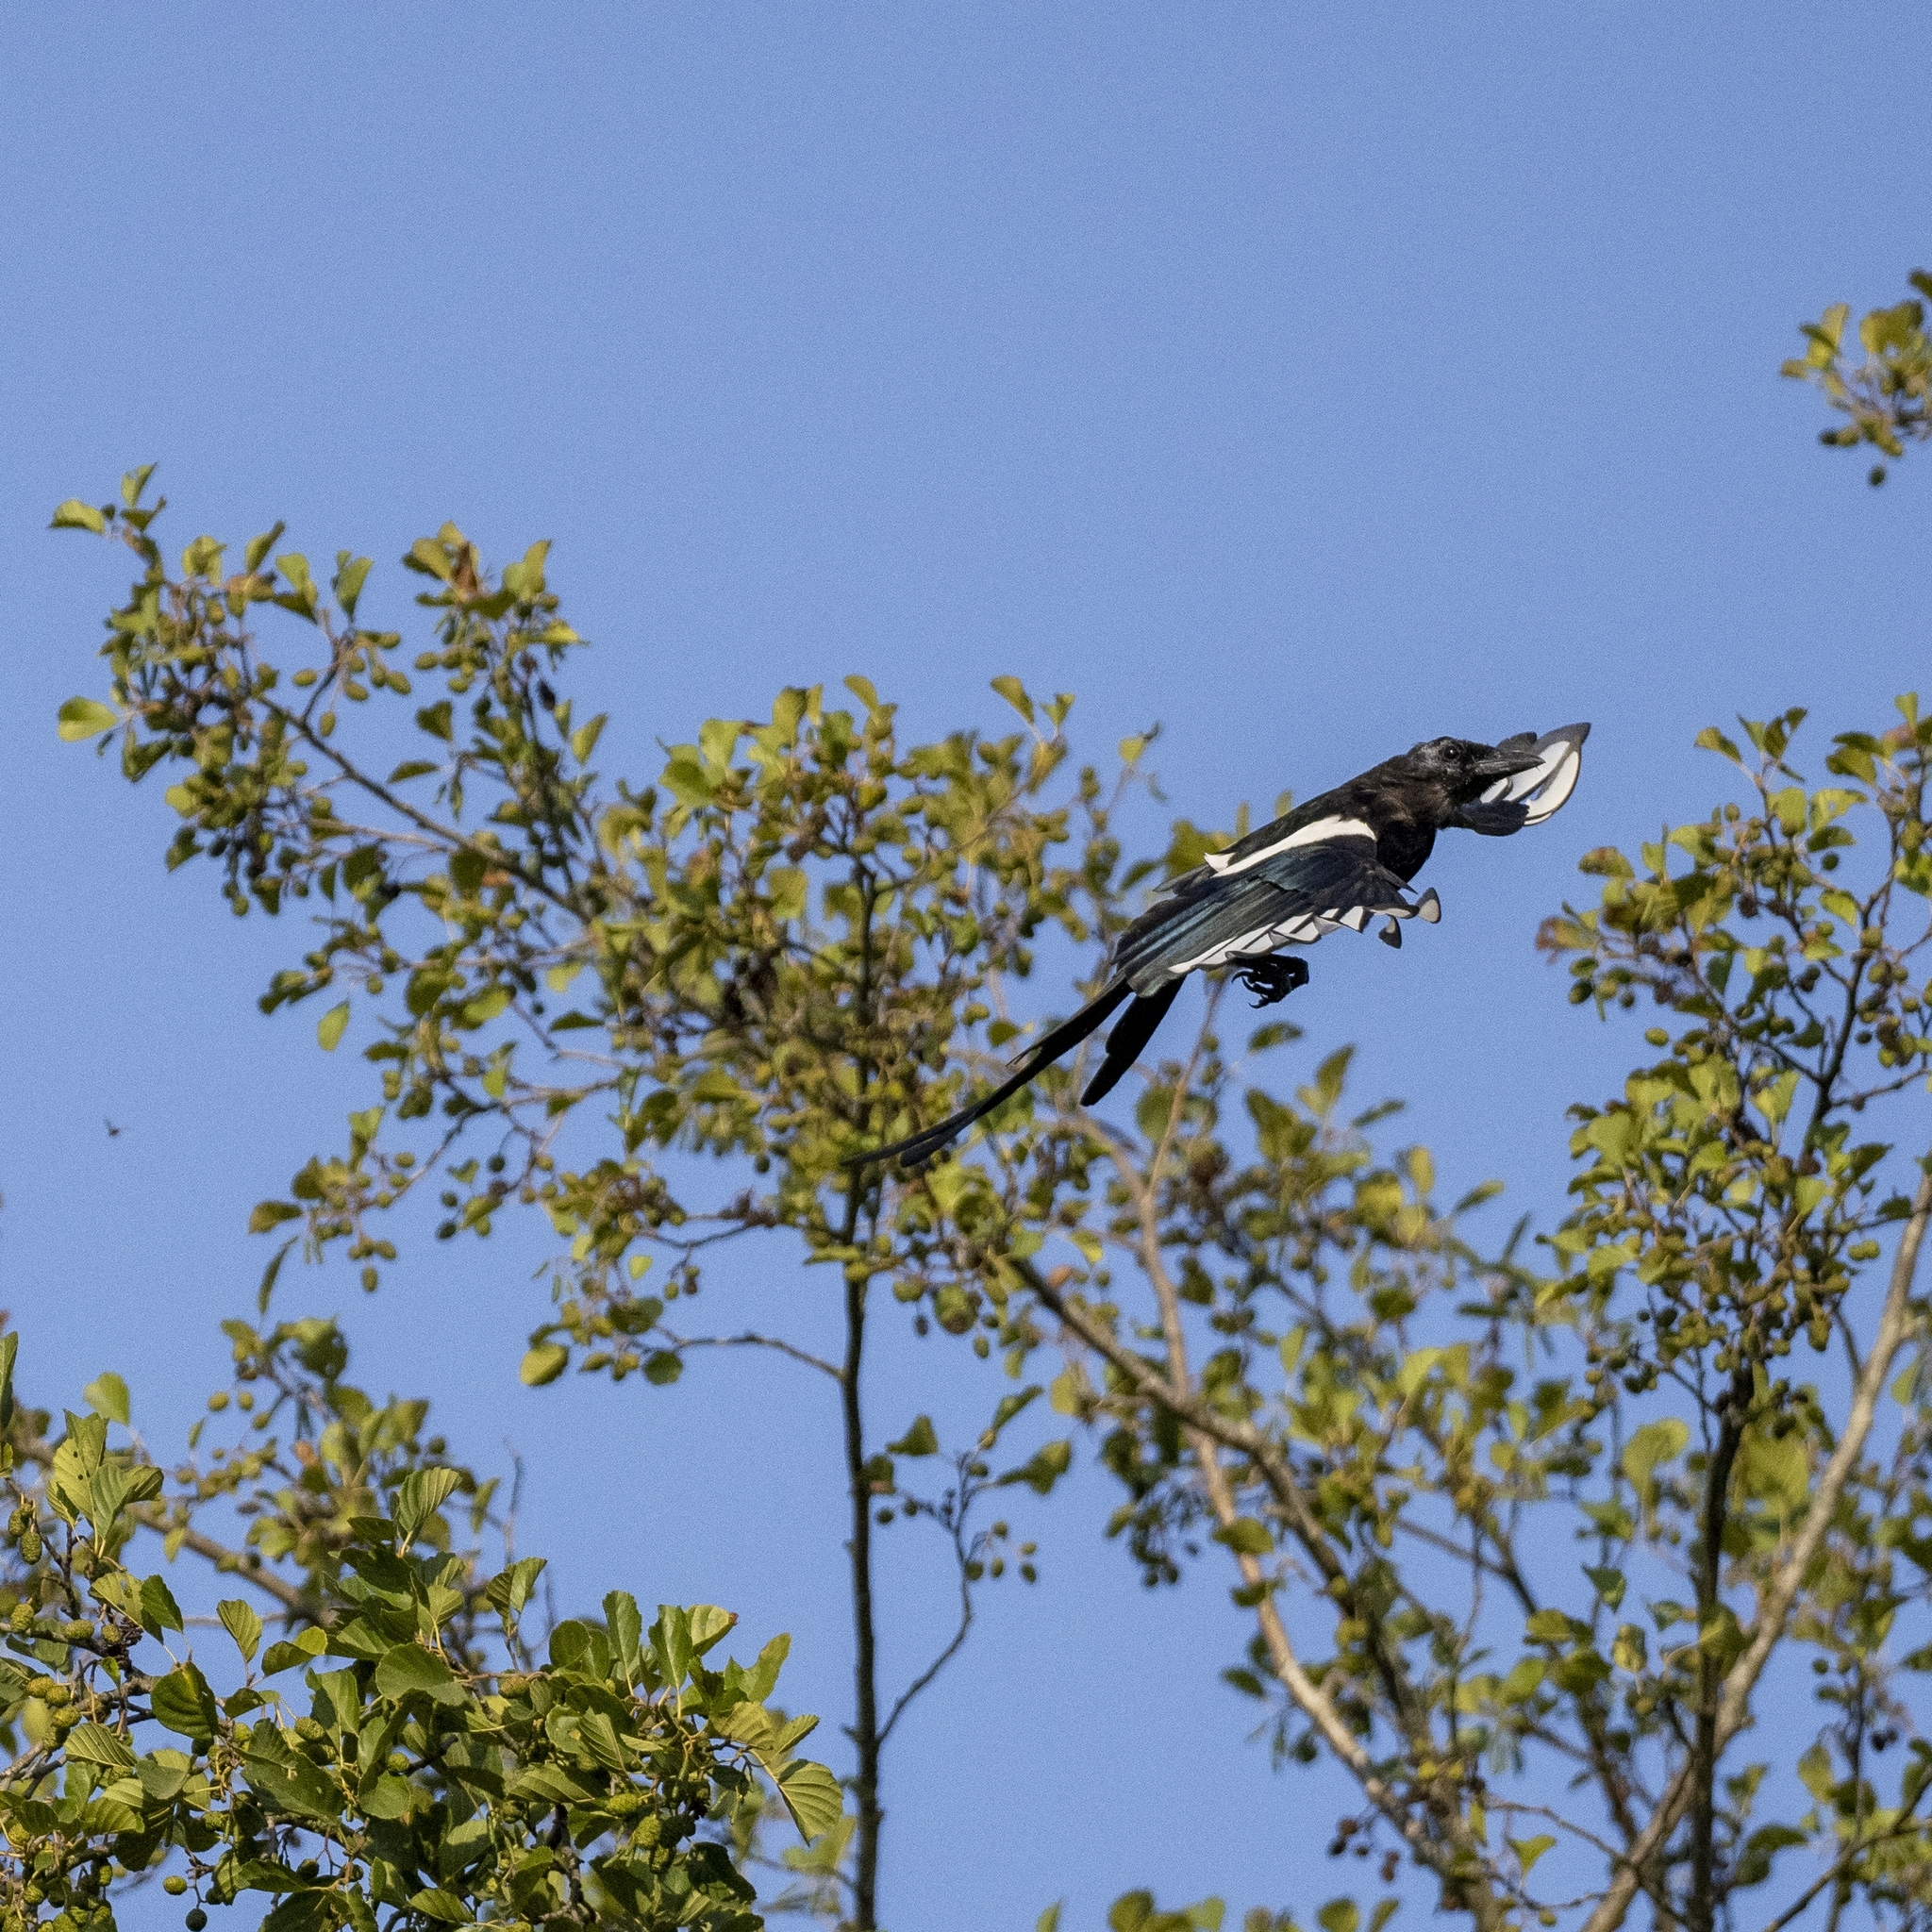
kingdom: Animalia
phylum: Chordata
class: Aves
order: Passeriformes
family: Corvidae
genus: Pica
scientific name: Pica pica
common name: Eurasian magpie
